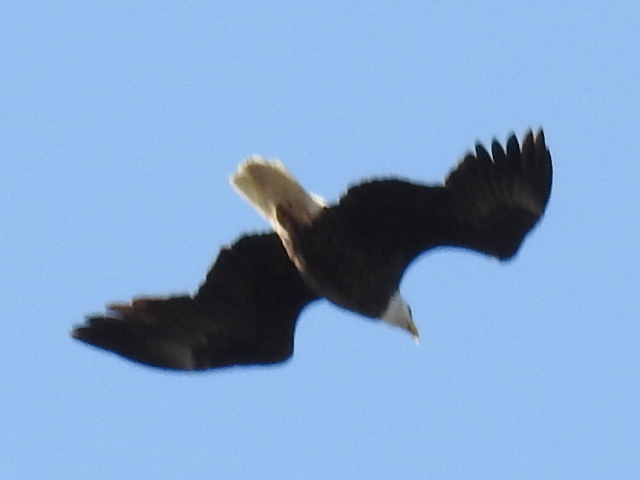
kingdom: Animalia
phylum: Chordata
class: Aves
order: Accipitriformes
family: Accipitridae
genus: Haliaeetus
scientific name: Haliaeetus leucocephalus
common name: Bald eagle
